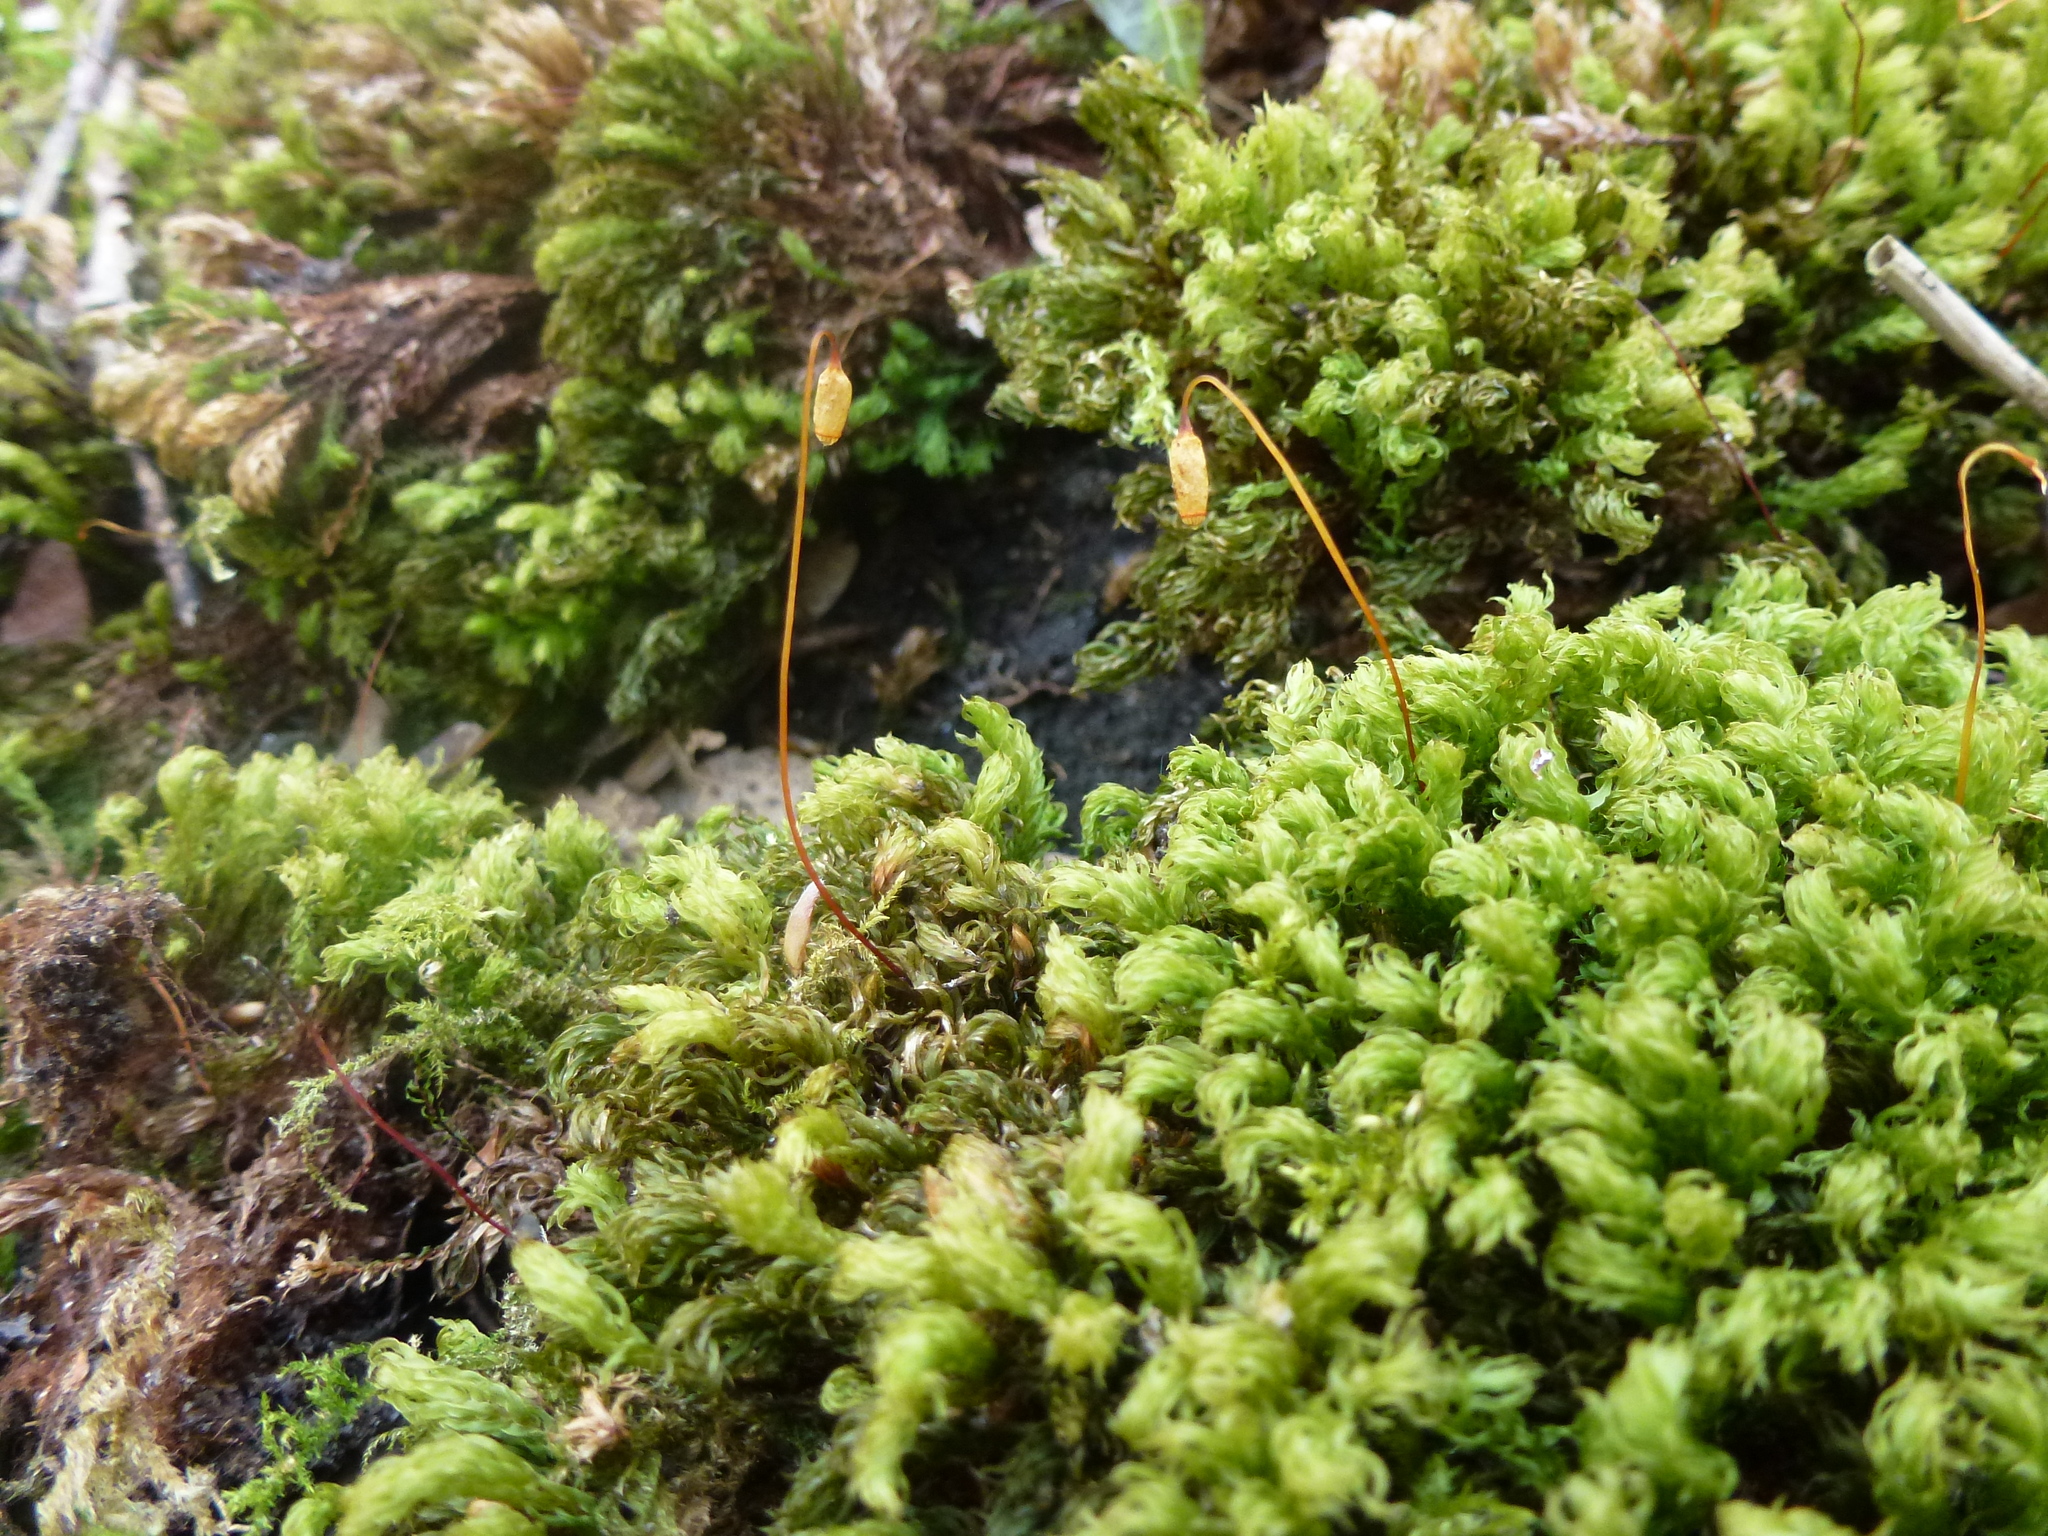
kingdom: Plantae
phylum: Bryophyta
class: Bryopsida
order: Bryales
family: Mniaceae
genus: Mnium
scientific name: Mnium hornum
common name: Swan's-neck leafy moss
